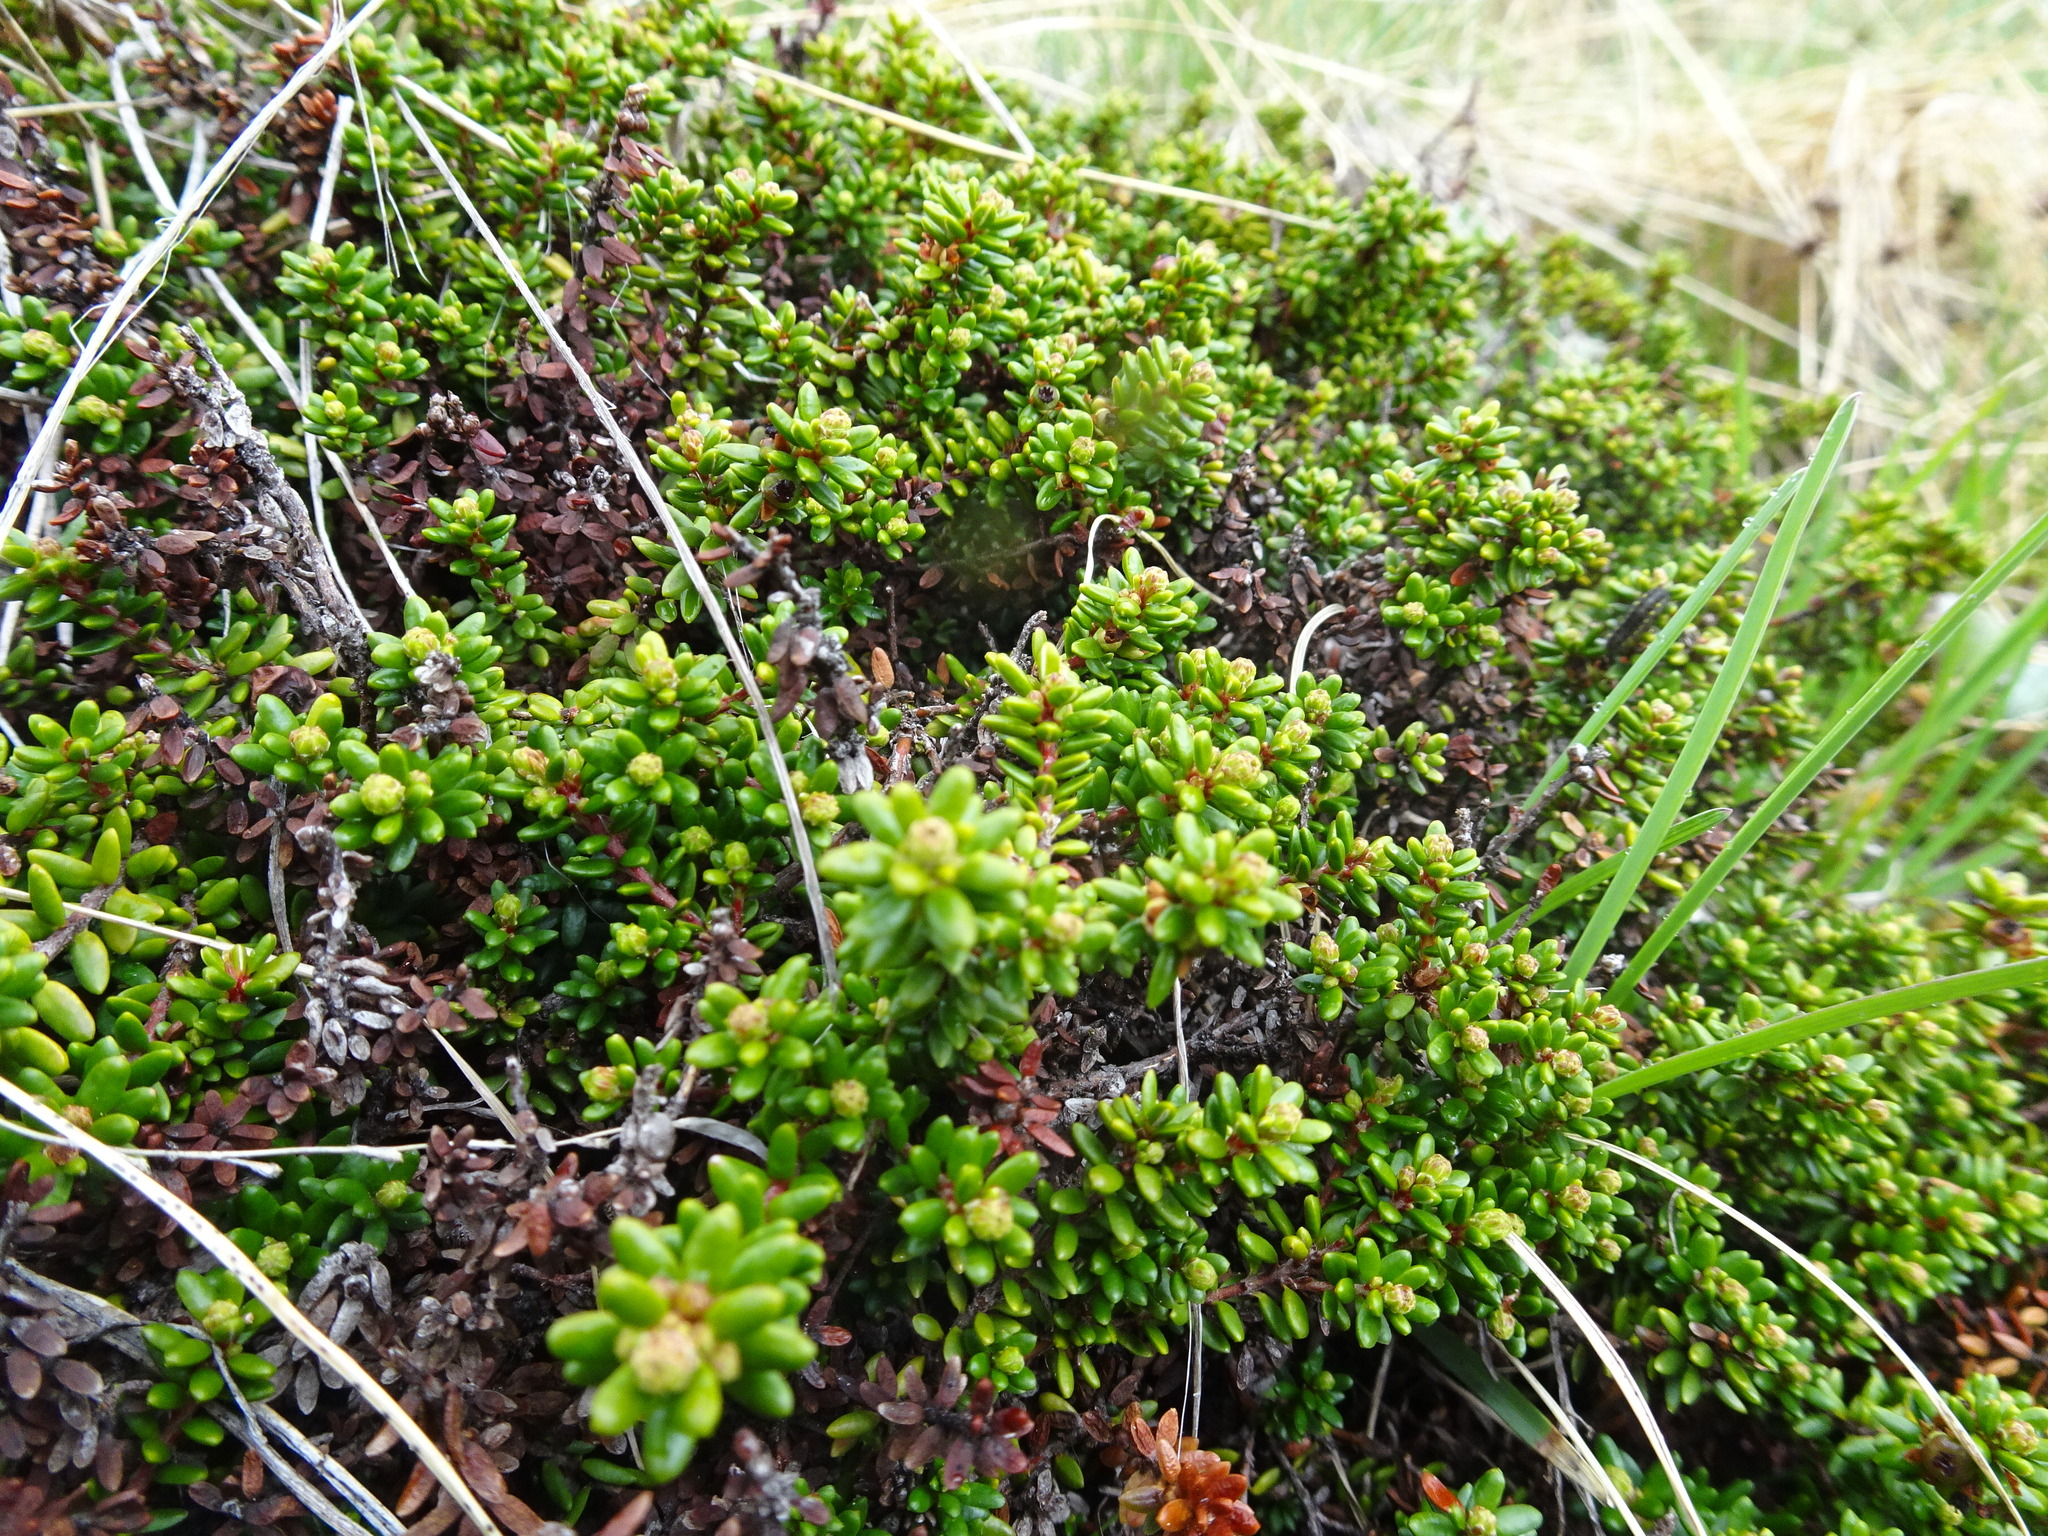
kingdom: Plantae
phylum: Tracheophyta
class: Magnoliopsida
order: Ericales
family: Ericaceae
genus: Empetrum
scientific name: Empetrum nigrum
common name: Black crowberry
